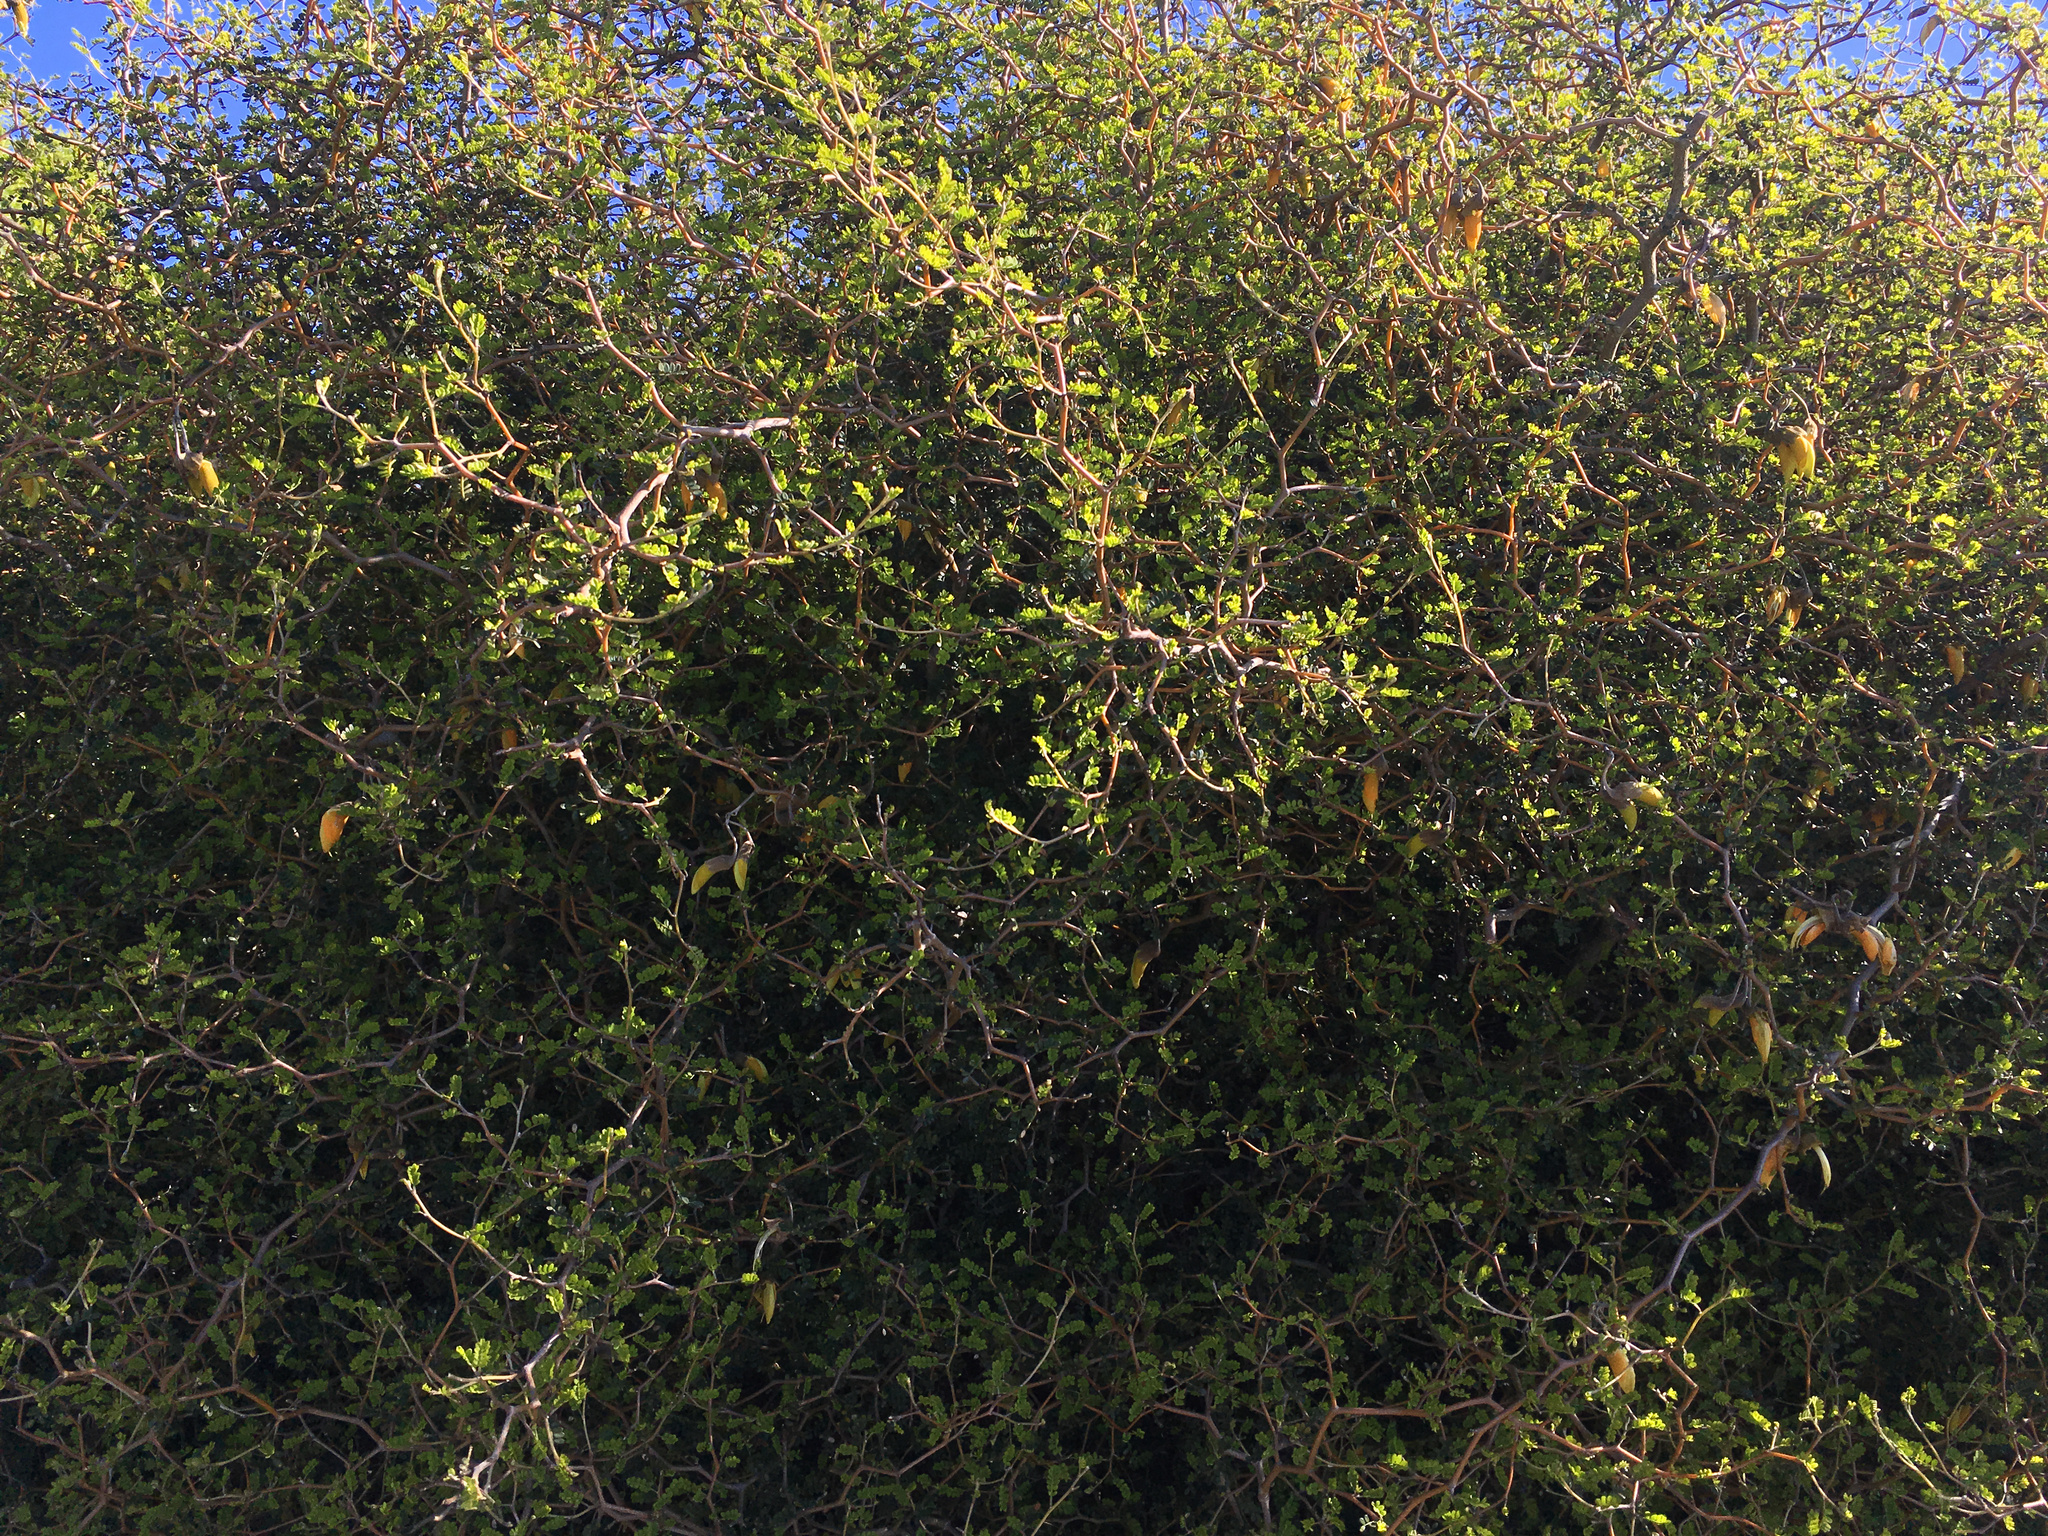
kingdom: Plantae
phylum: Tracheophyta
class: Magnoliopsida
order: Fabales
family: Fabaceae
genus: Sophora
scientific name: Sophora prostrata
